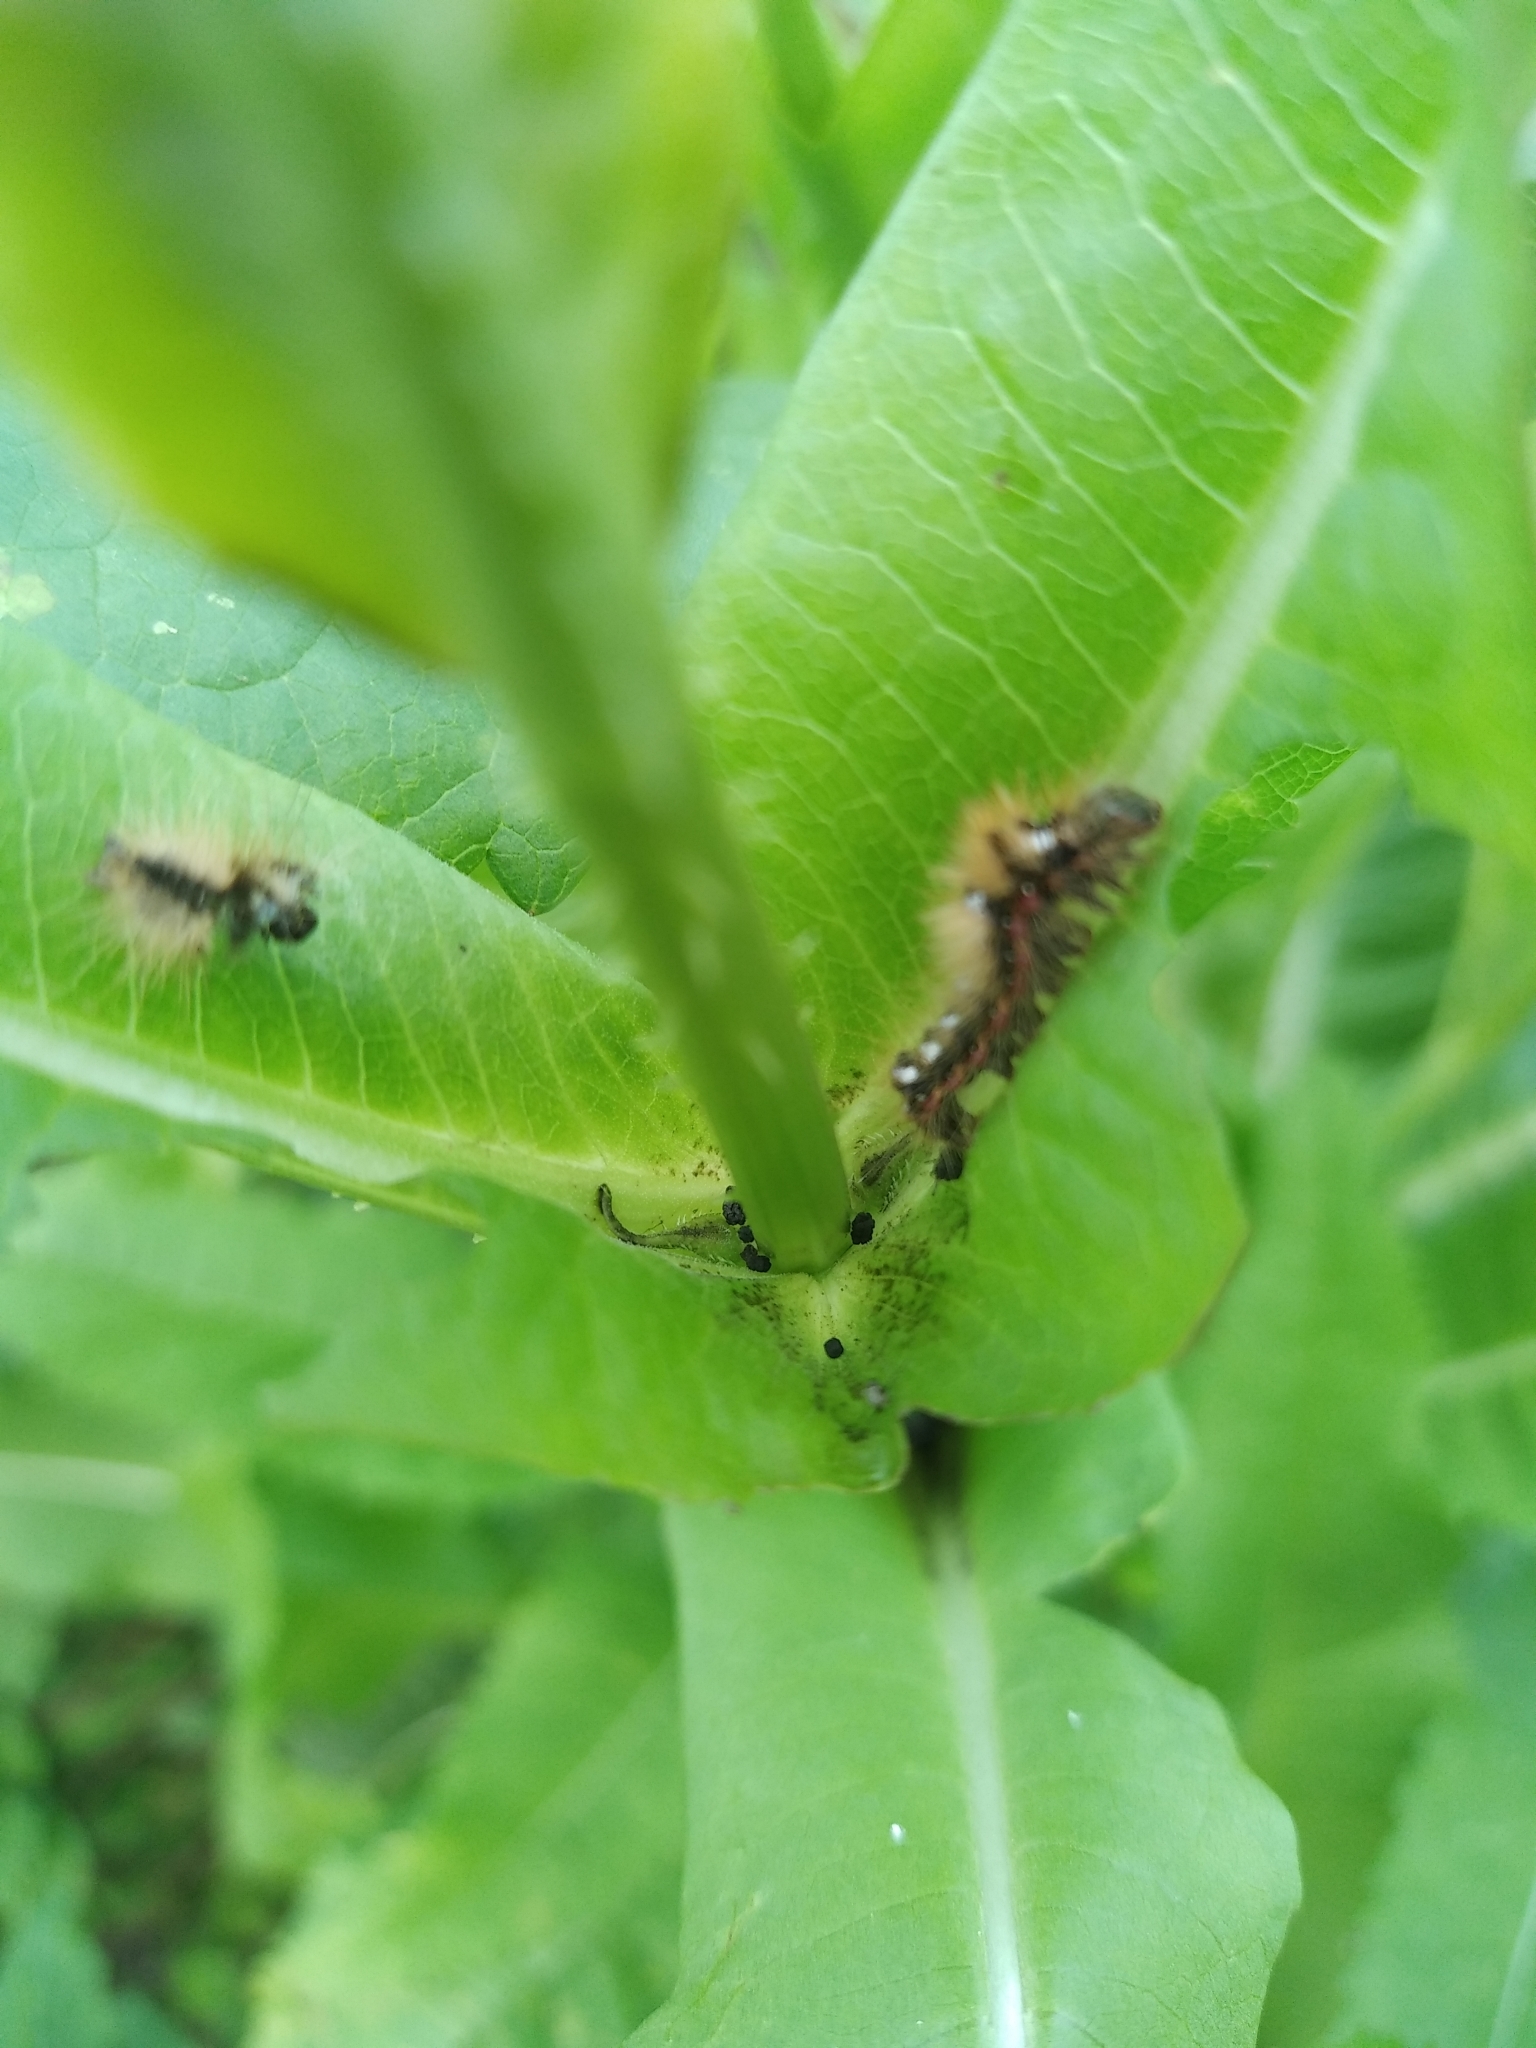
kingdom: Animalia
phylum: Arthropoda
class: Insecta
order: Lepidoptera
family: Noctuidae
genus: Acronicta
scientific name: Acronicta rumicis
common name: Knot grass
